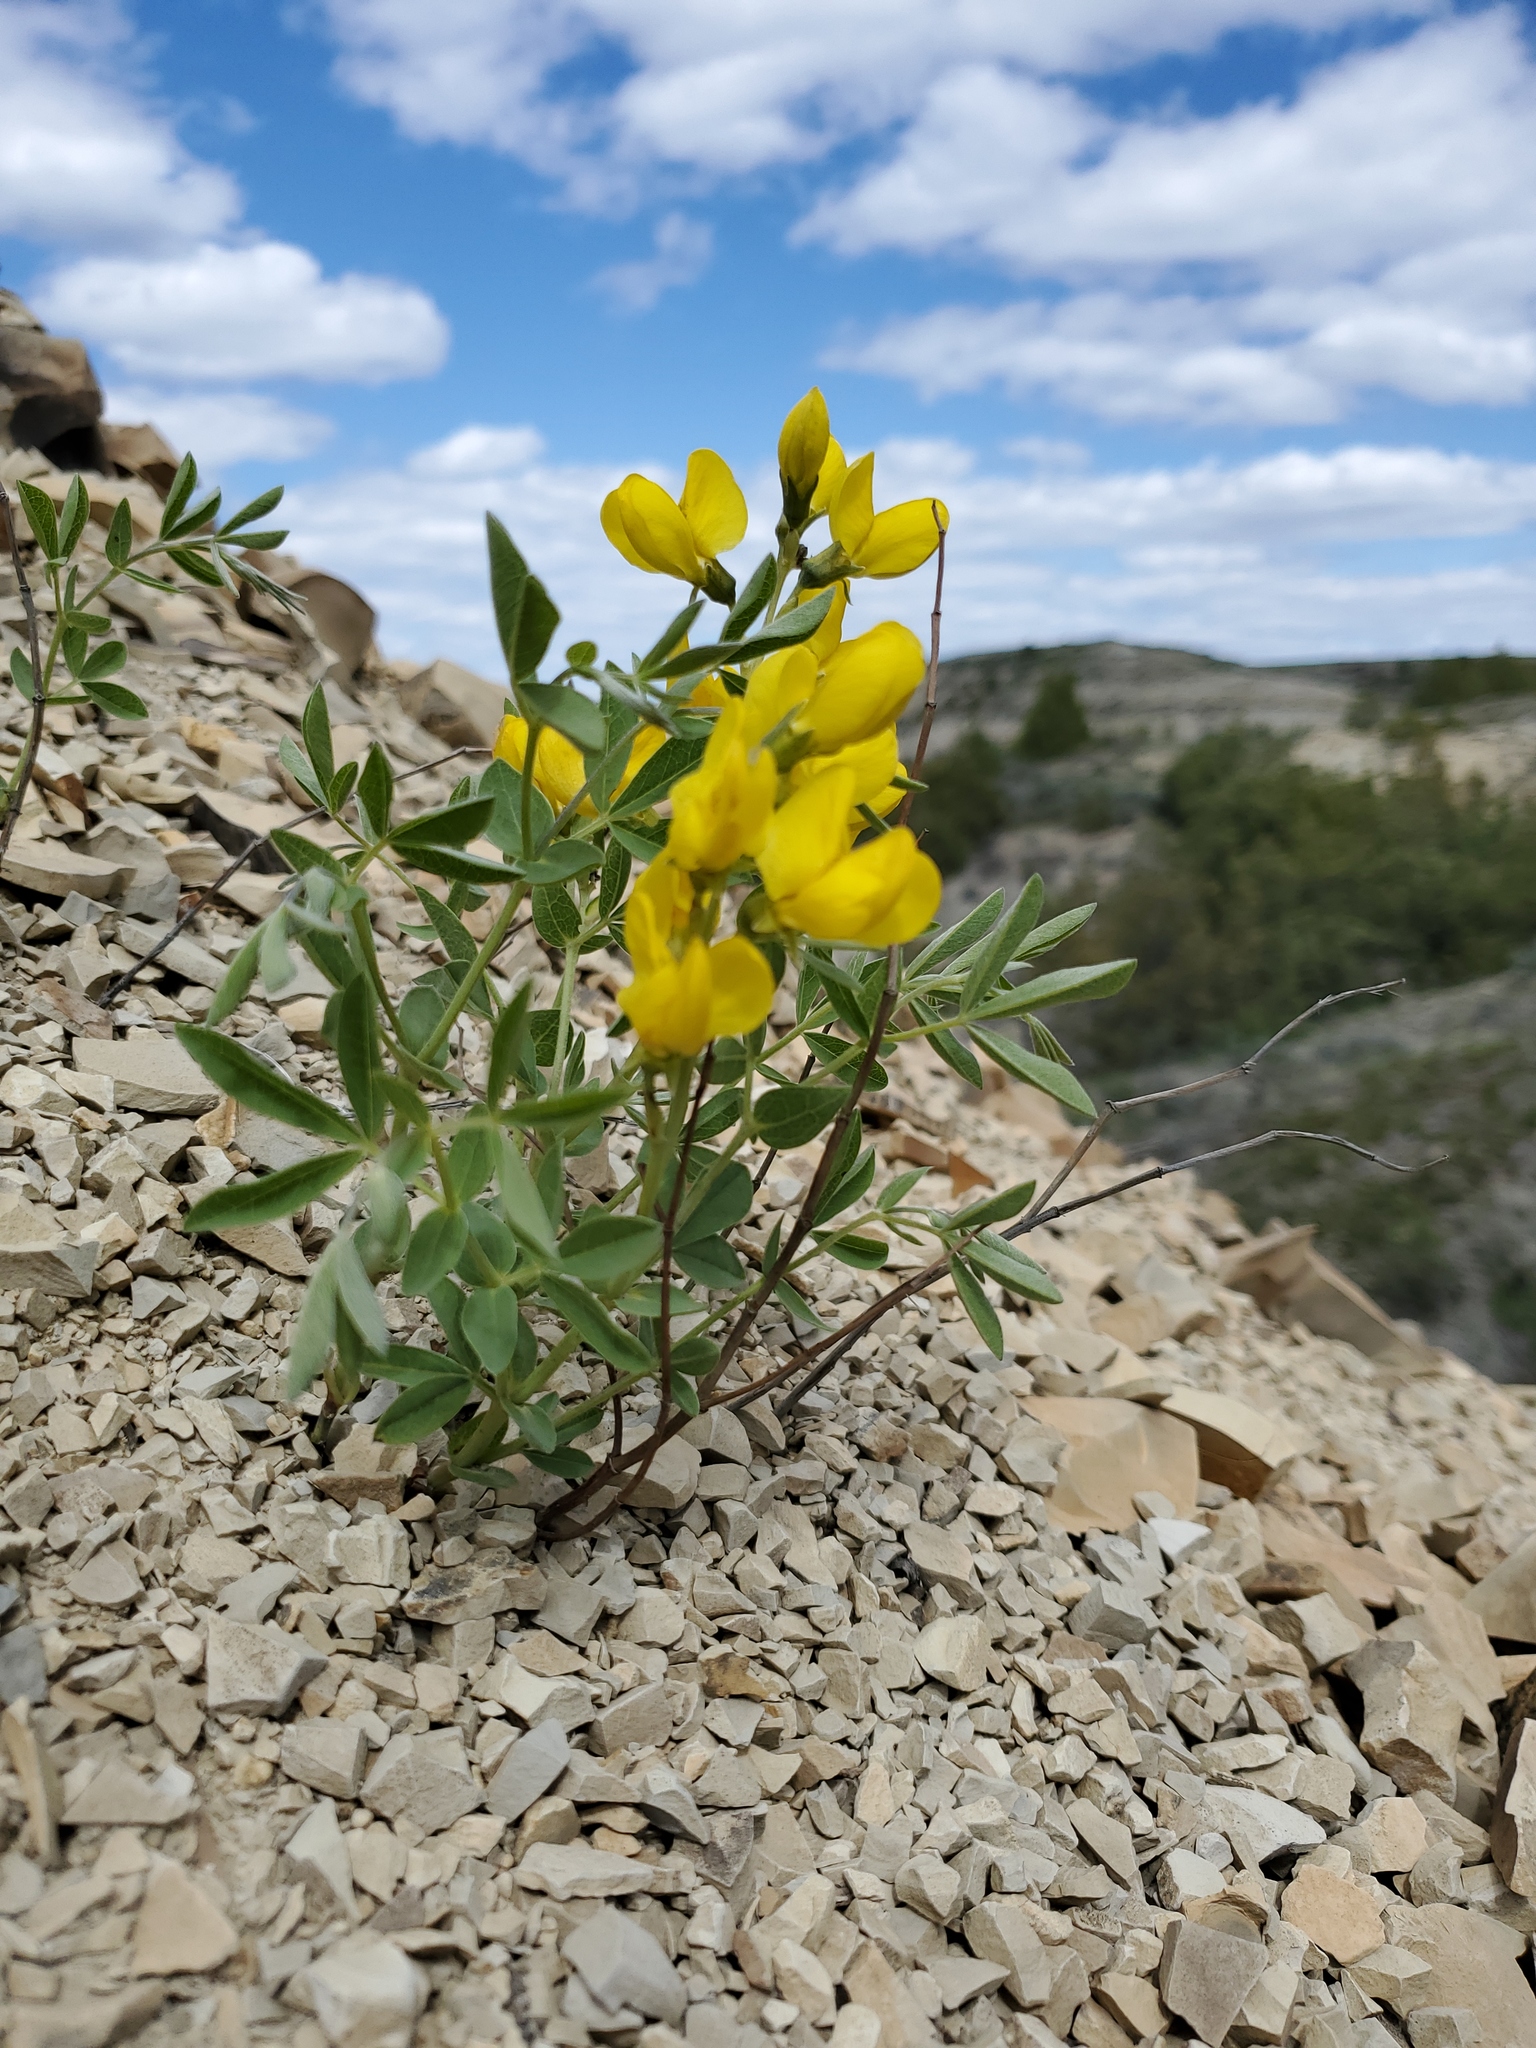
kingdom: Plantae
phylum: Tracheophyta
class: Magnoliopsida
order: Fabales
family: Fabaceae
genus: Thermopsis
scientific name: Thermopsis rhombifolia
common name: Circle-pod-pea
